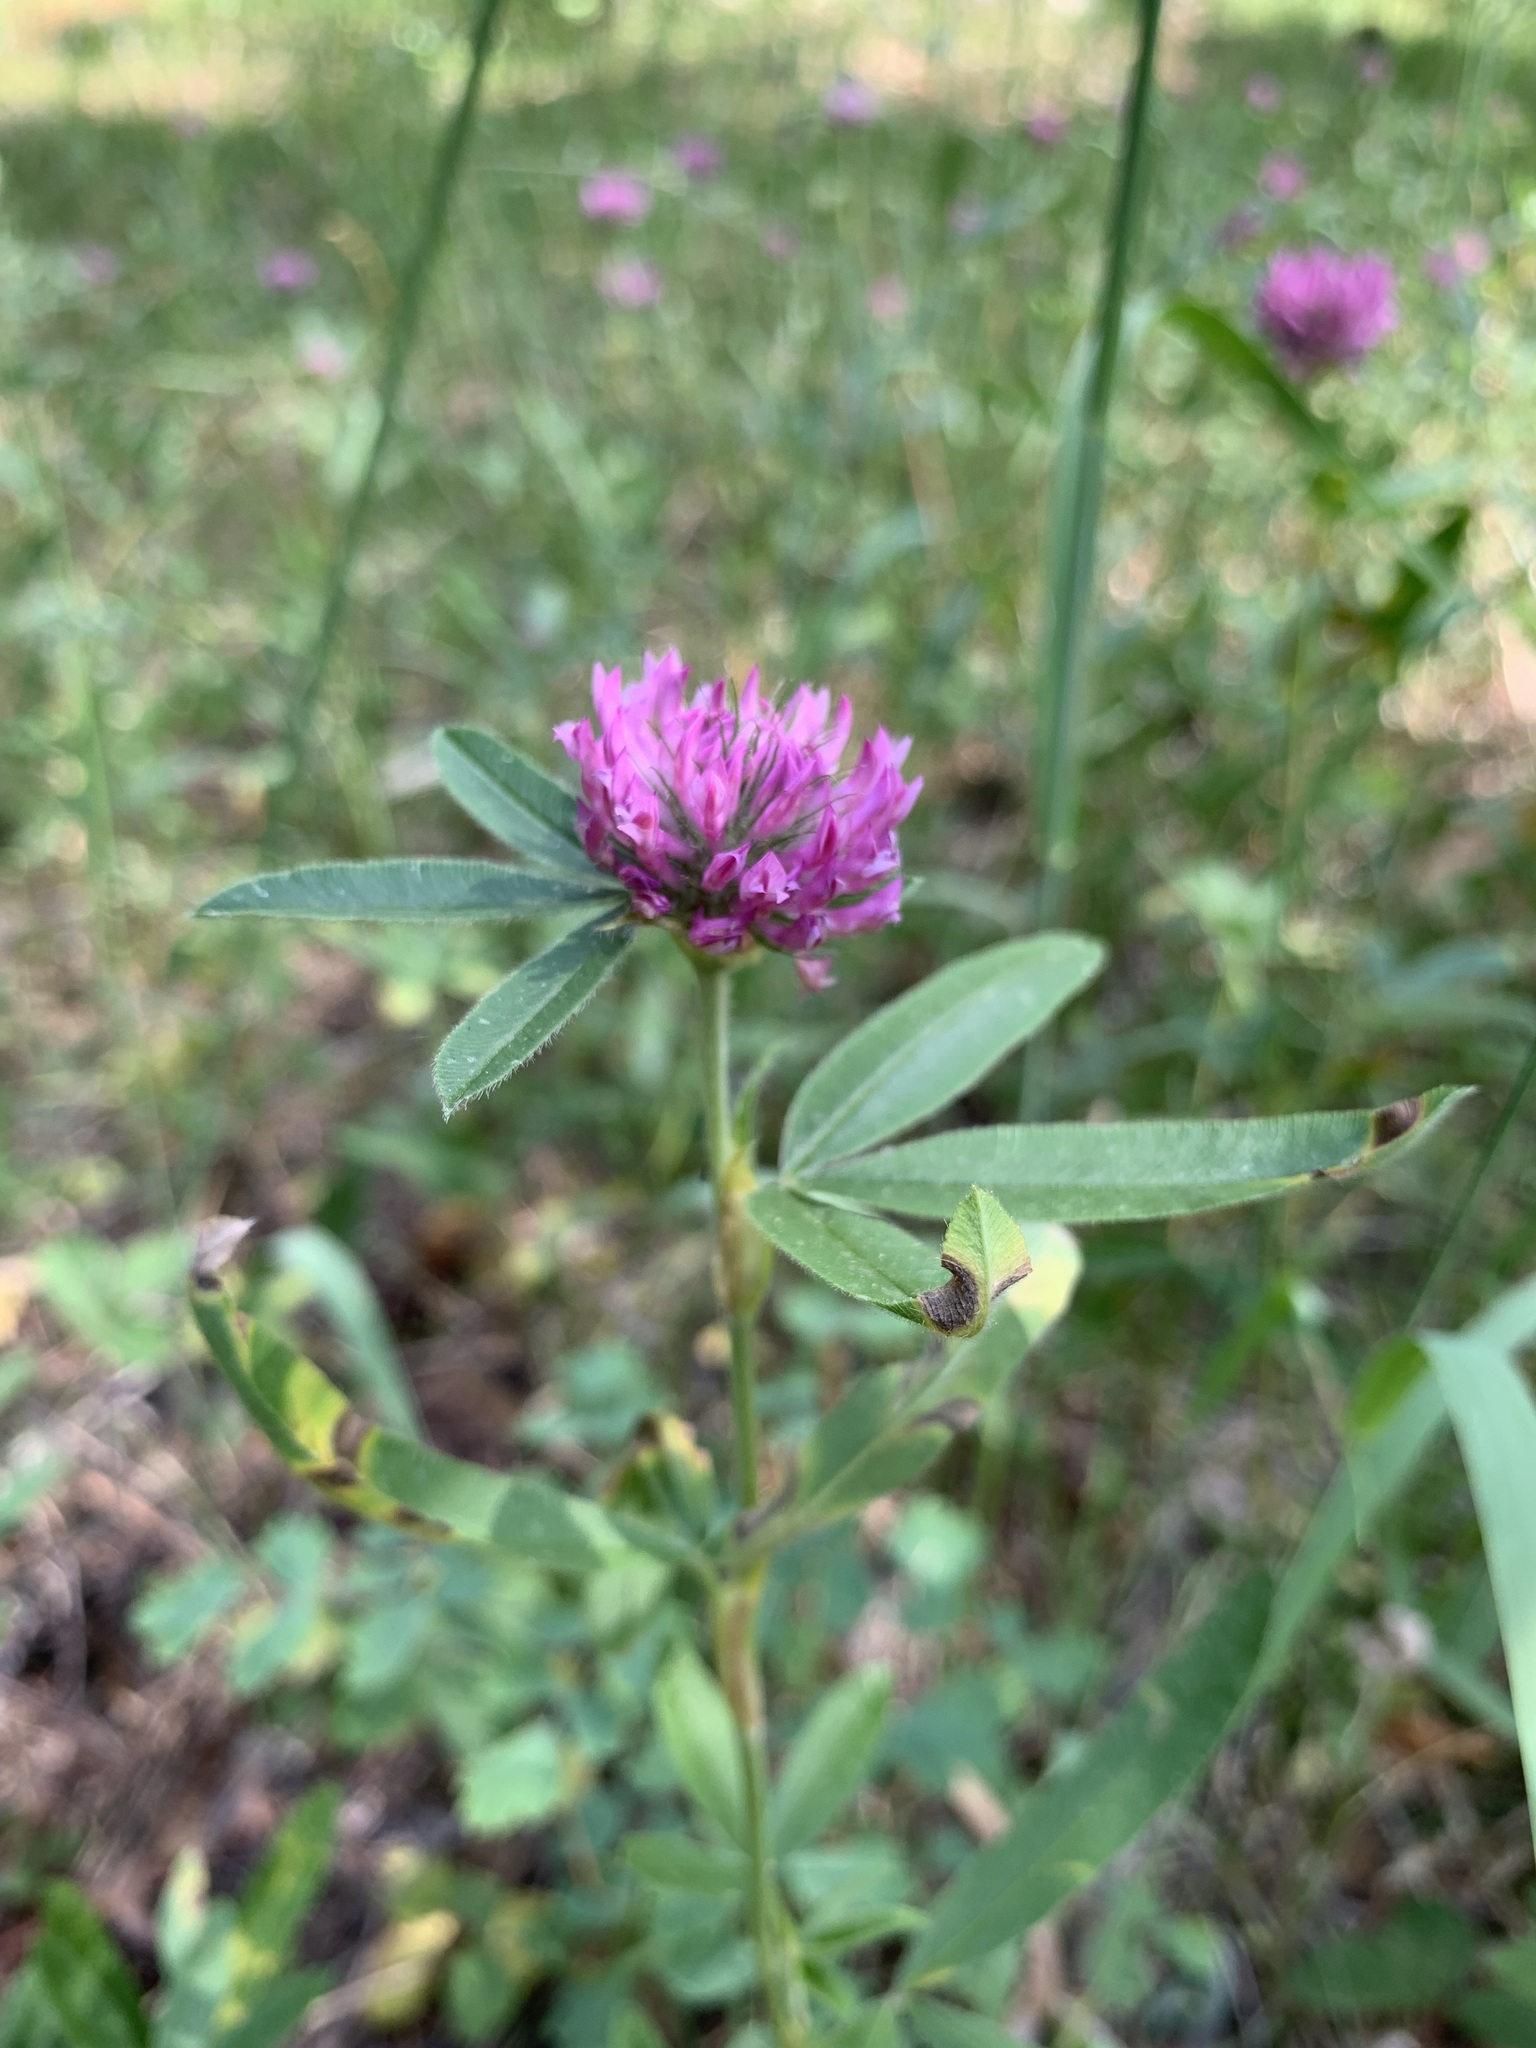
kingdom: Plantae
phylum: Tracheophyta
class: Magnoliopsida
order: Fabales
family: Fabaceae
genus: Trifolium
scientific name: Trifolium alpestre
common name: Owl-head clover
